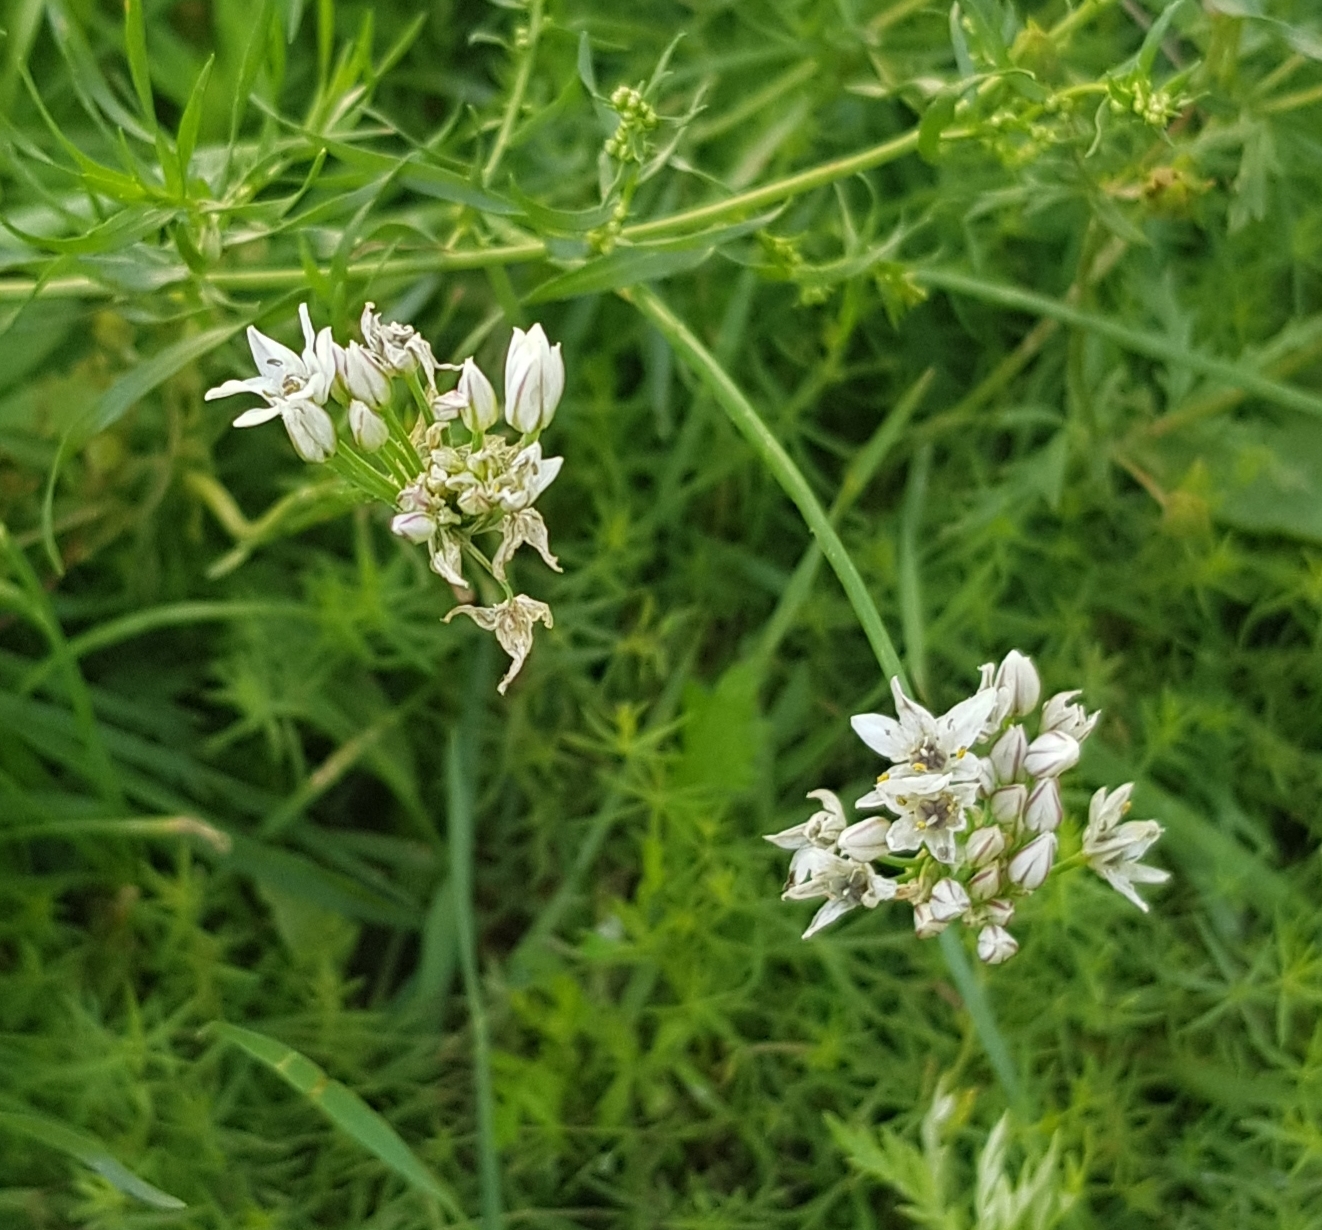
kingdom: Plantae
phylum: Tracheophyta
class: Liliopsida
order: Asparagales
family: Amaryllidaceae
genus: Allium
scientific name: Allium ramosum
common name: Fragrant garlic
